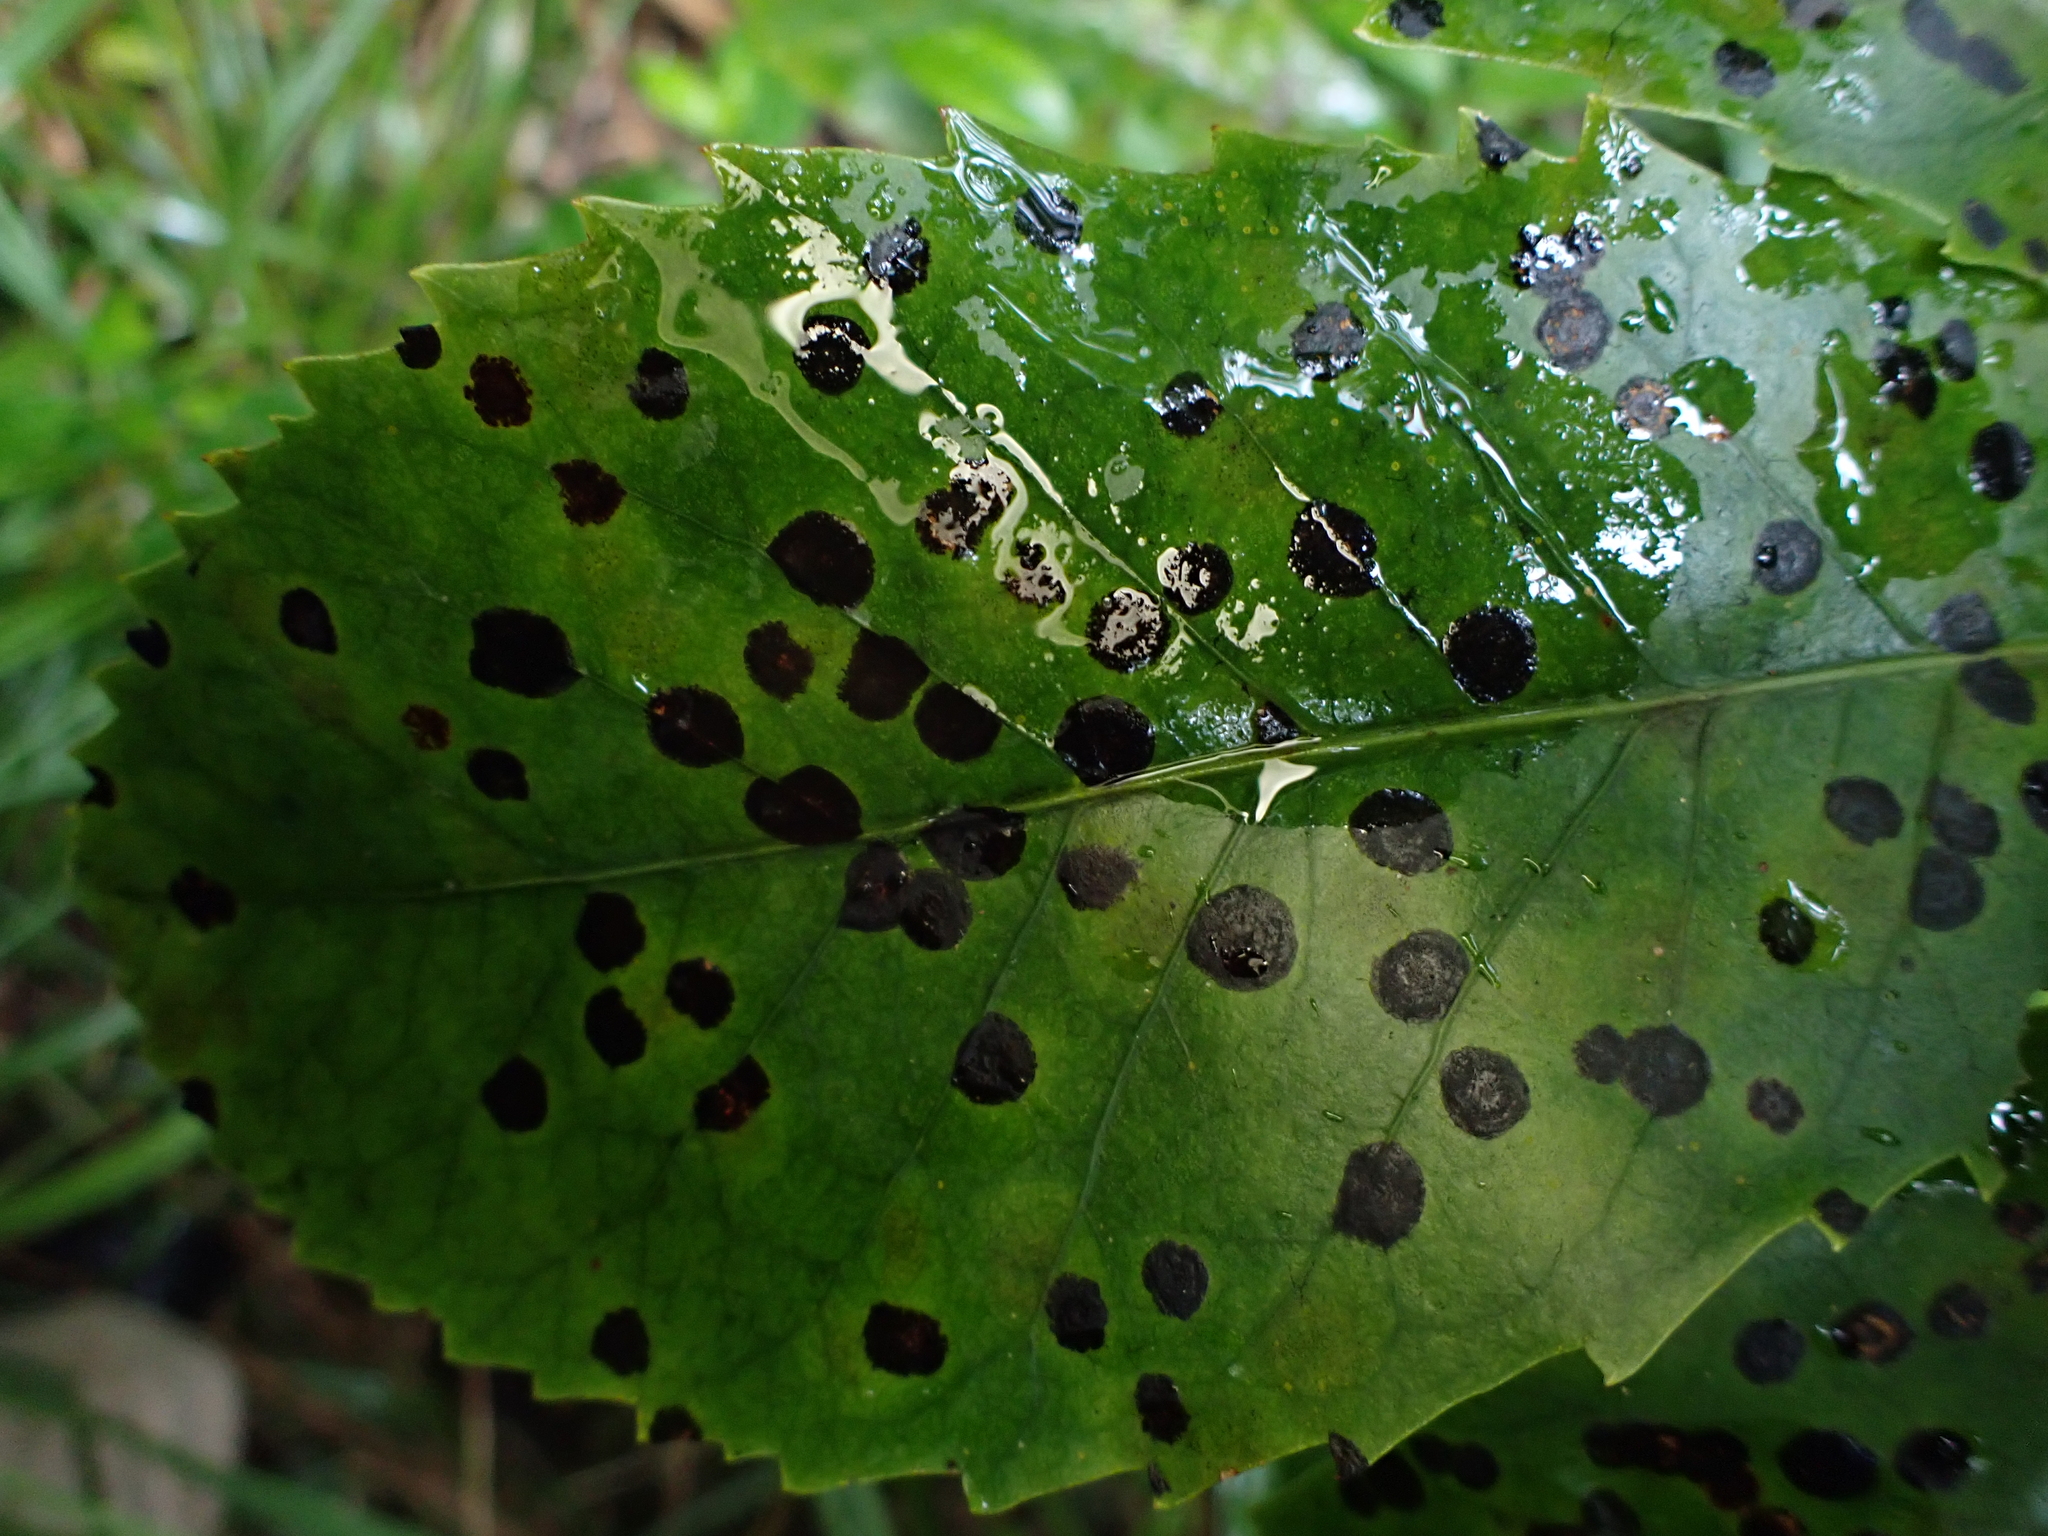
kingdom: Fungi
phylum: Ascomycota
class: Dothideomycetes
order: Asterinales
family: Asterinaceae
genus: Placosoma
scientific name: Placosoma nothopanacis
